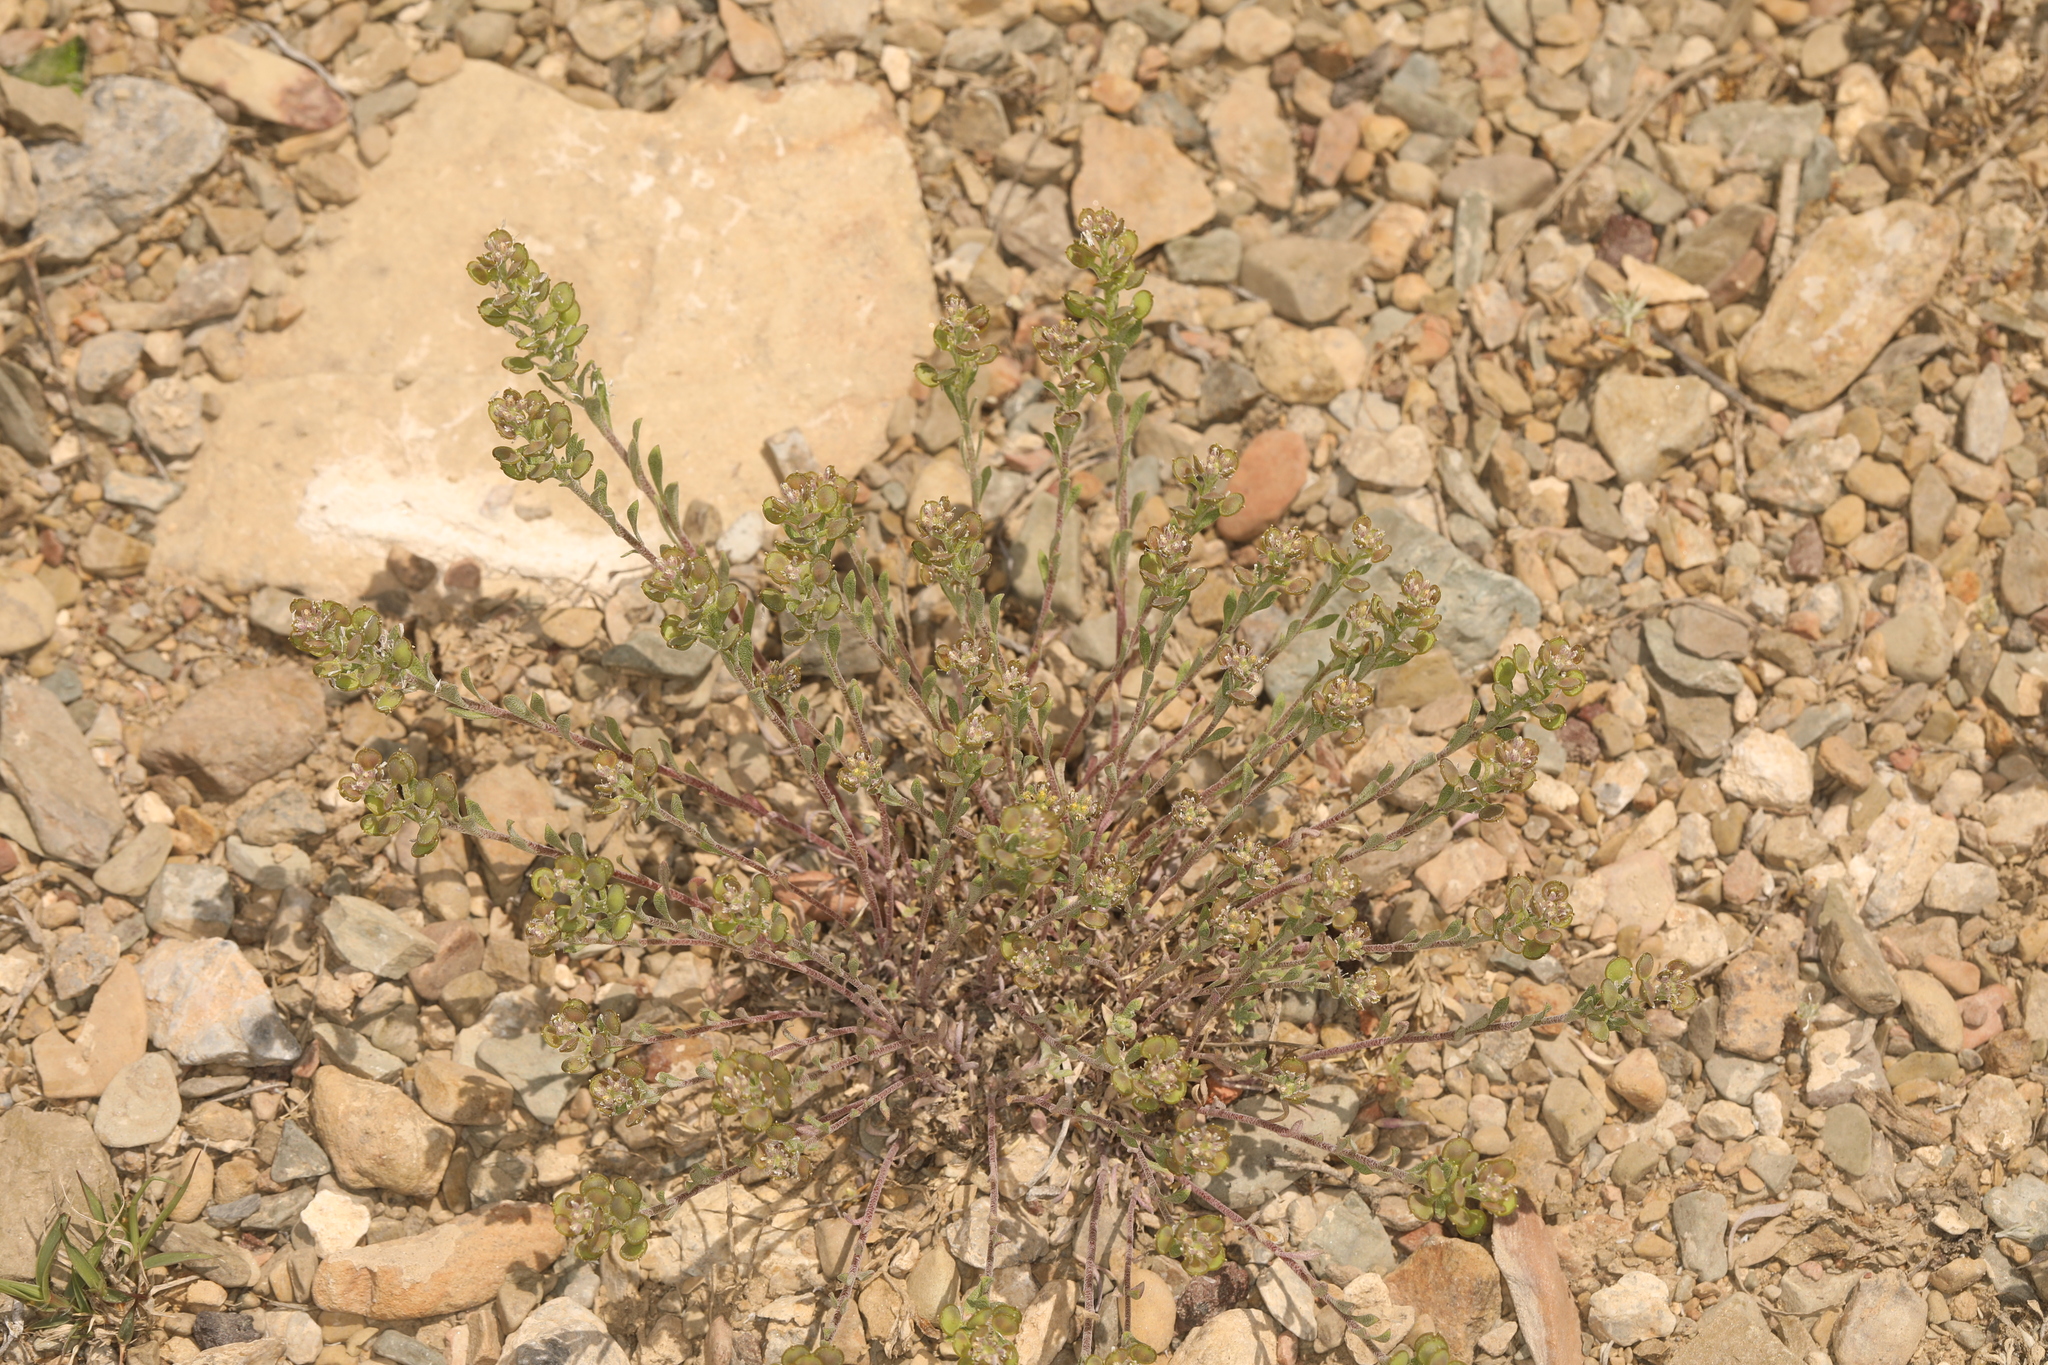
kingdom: Plantae
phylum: Tracheophyta
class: Magnoliopsida
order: Brassicales
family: Brassicaceae
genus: Alyssum
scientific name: Alyssum turkestanicum
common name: Desert alyssum
